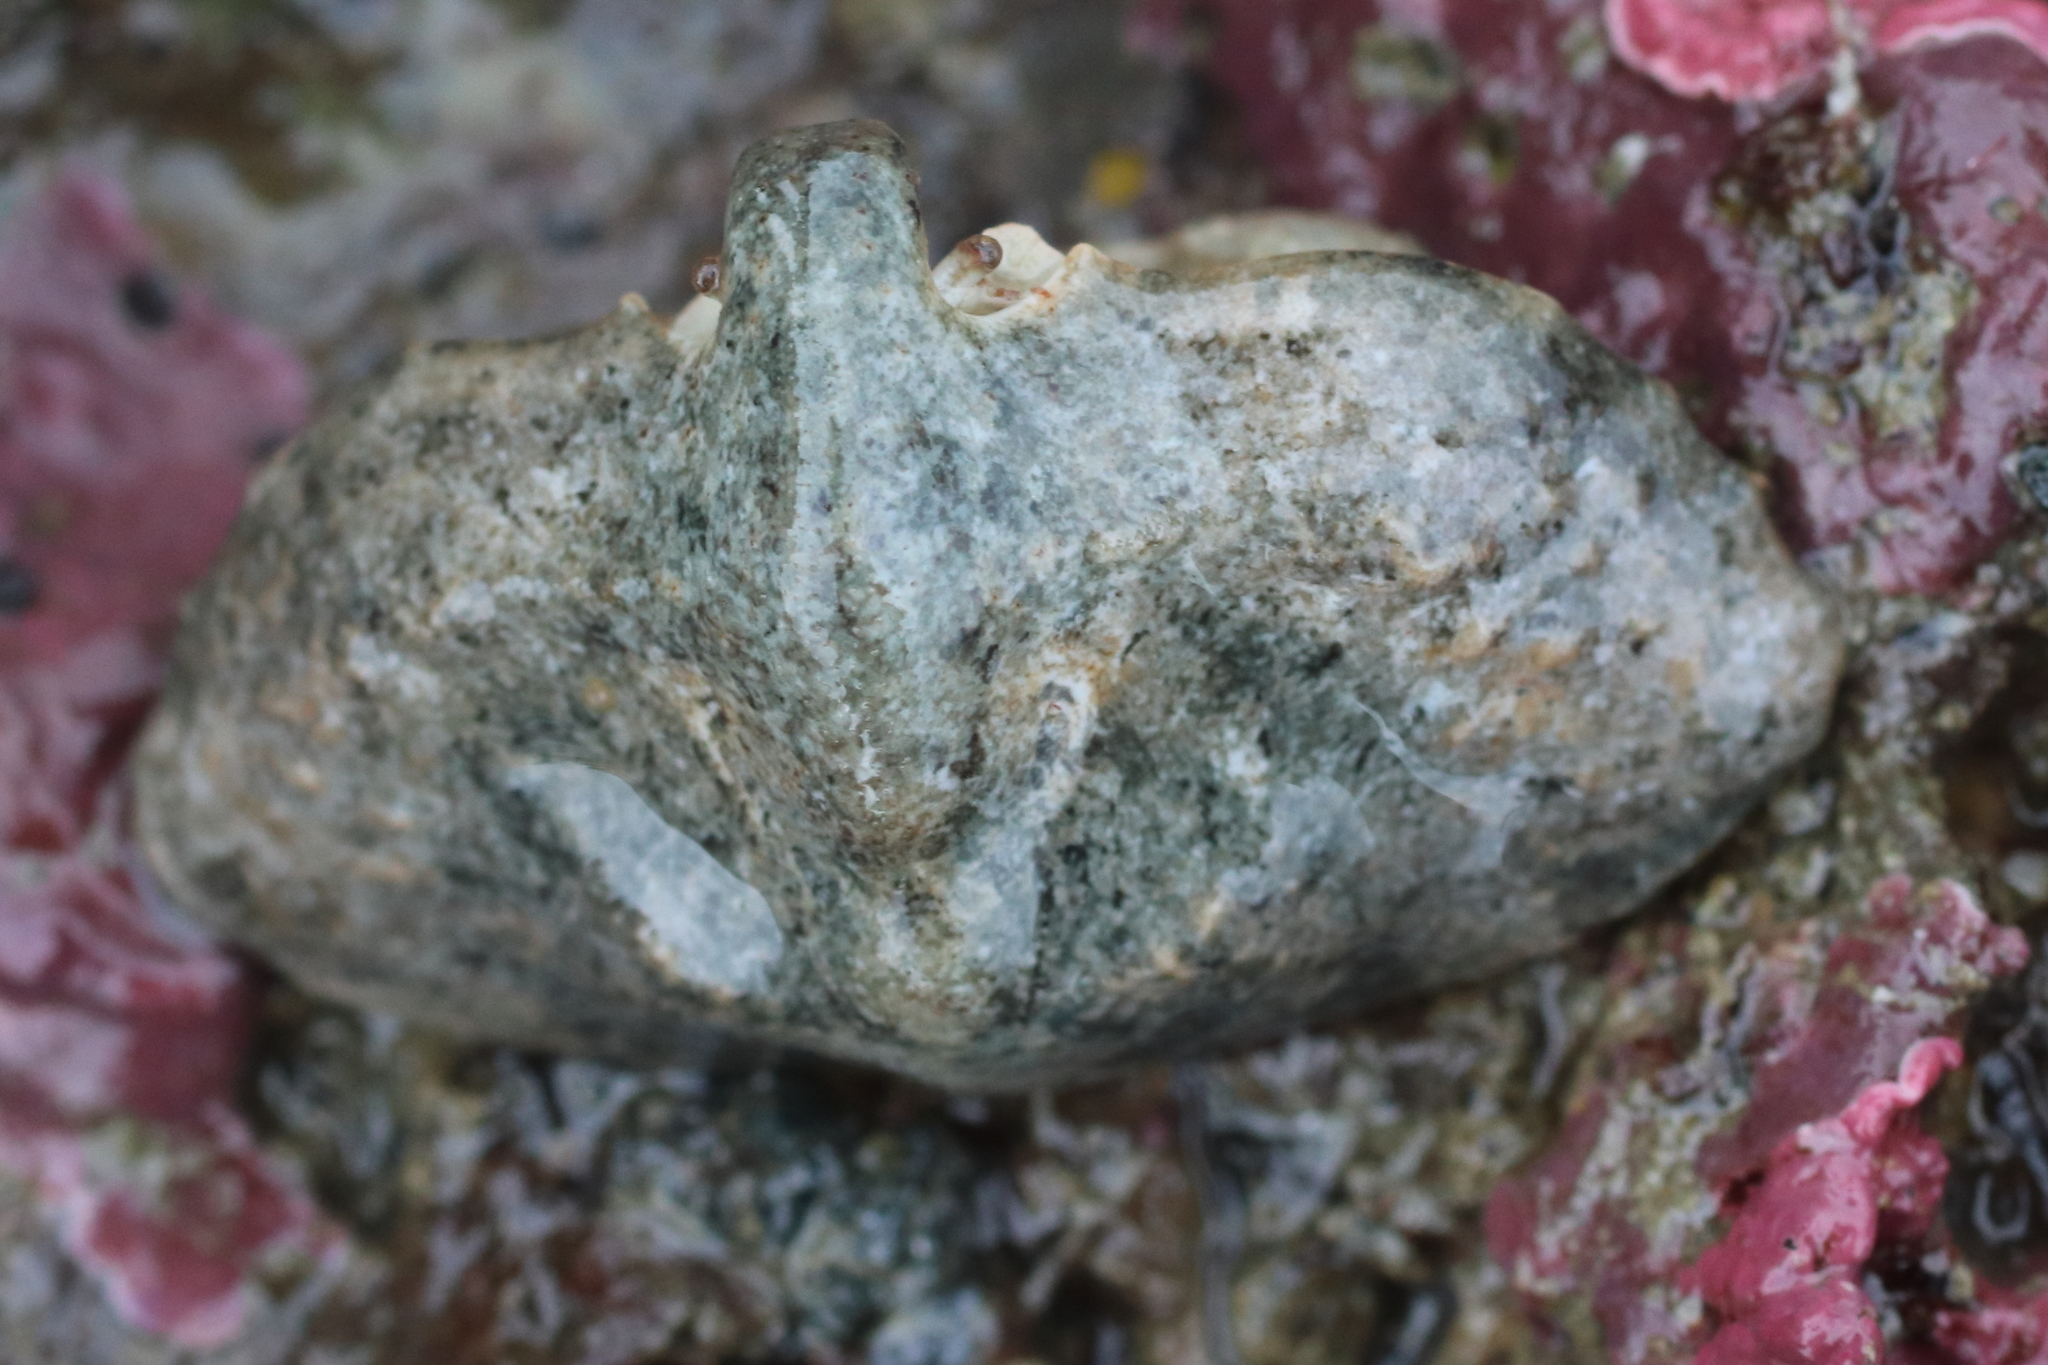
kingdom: Animalia
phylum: Arthropoda
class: Malacostraca
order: Decapoda
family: Lithodidae
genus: Cryptolithodes
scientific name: Cryptolithodes typicus
